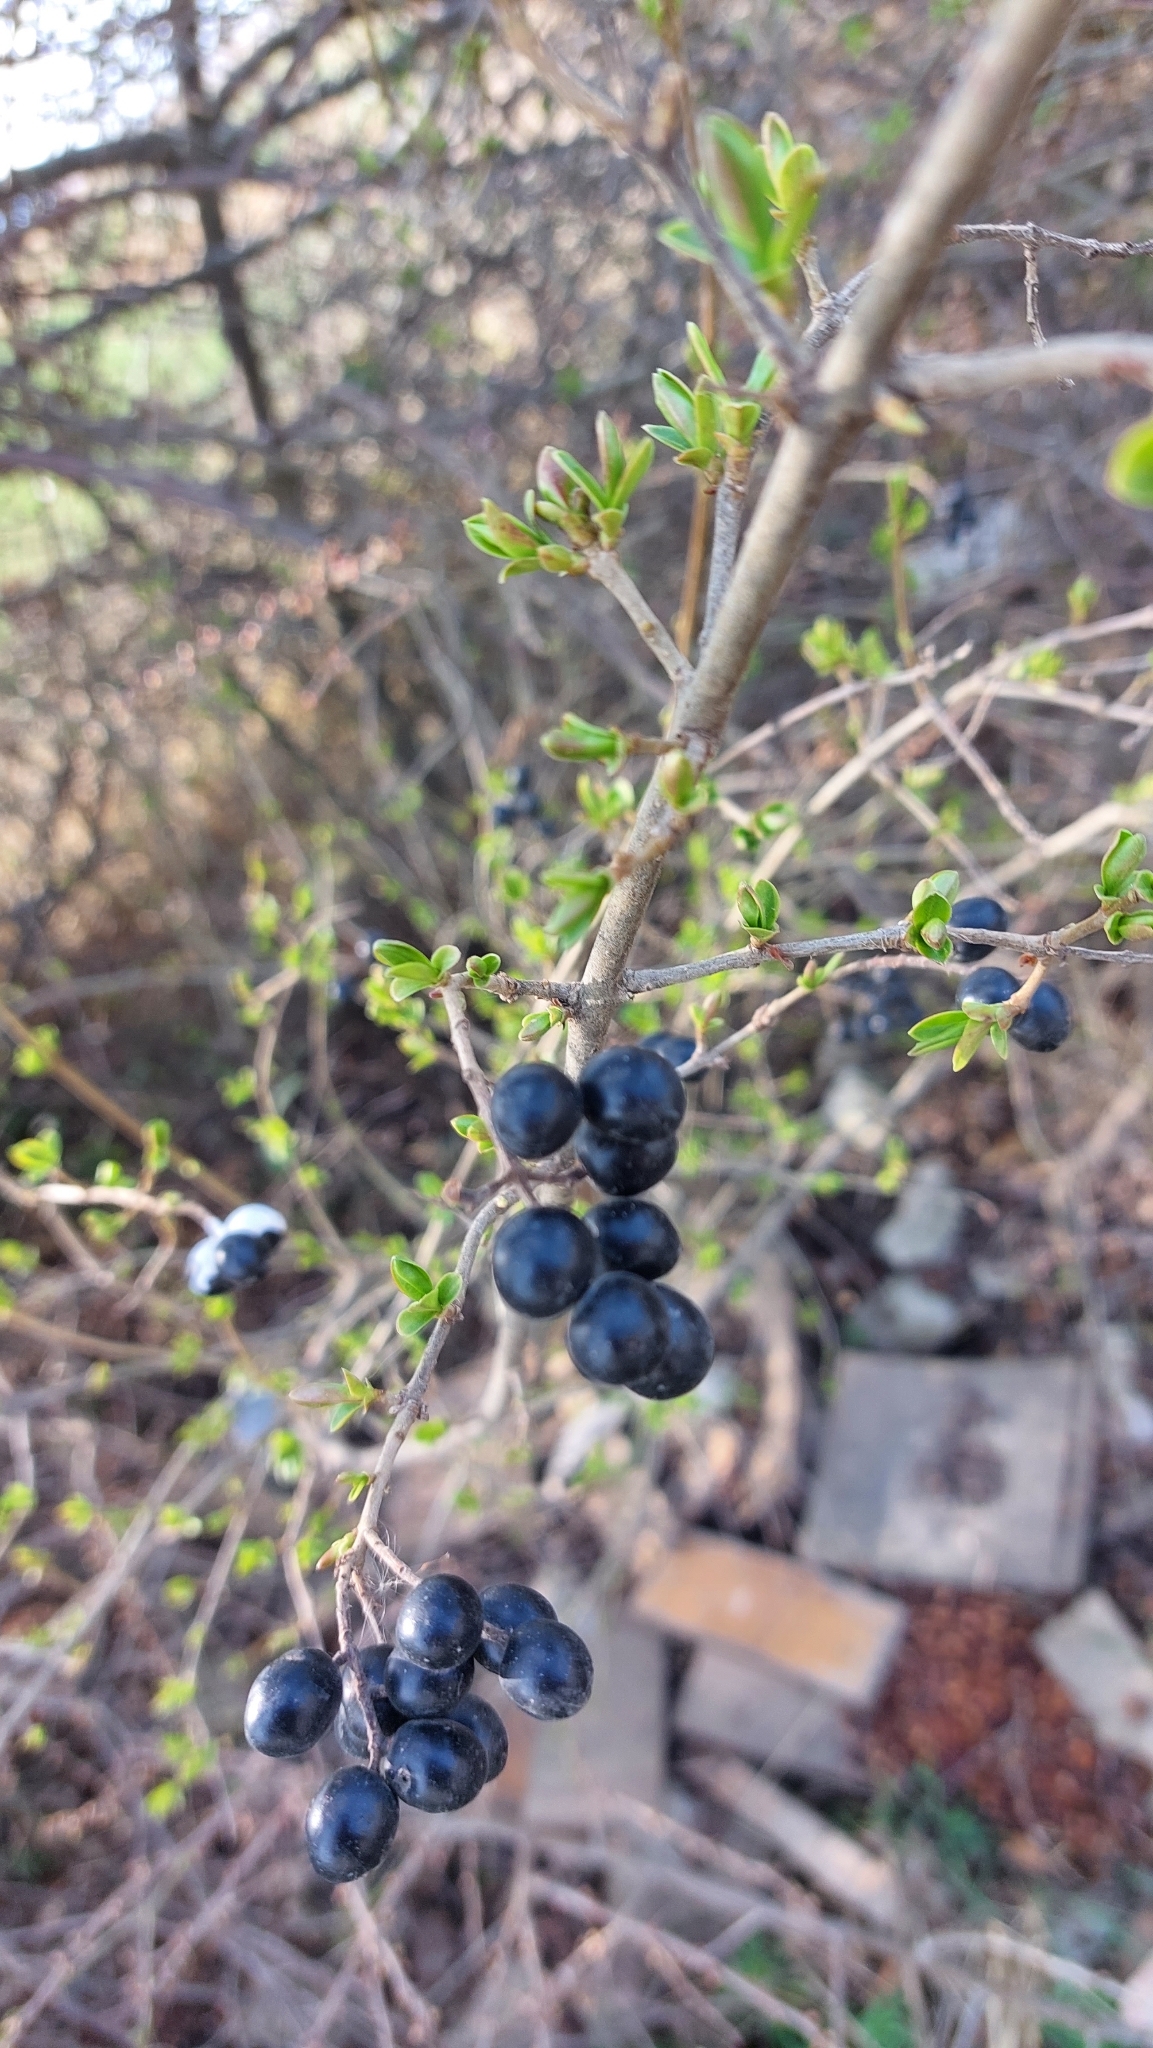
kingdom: Plantae
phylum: Tracheophyta
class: Magnoliopsida
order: Lamiales
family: Oleaceae
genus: Ligustrum
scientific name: Ligustrum vulgare
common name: Wild privet
